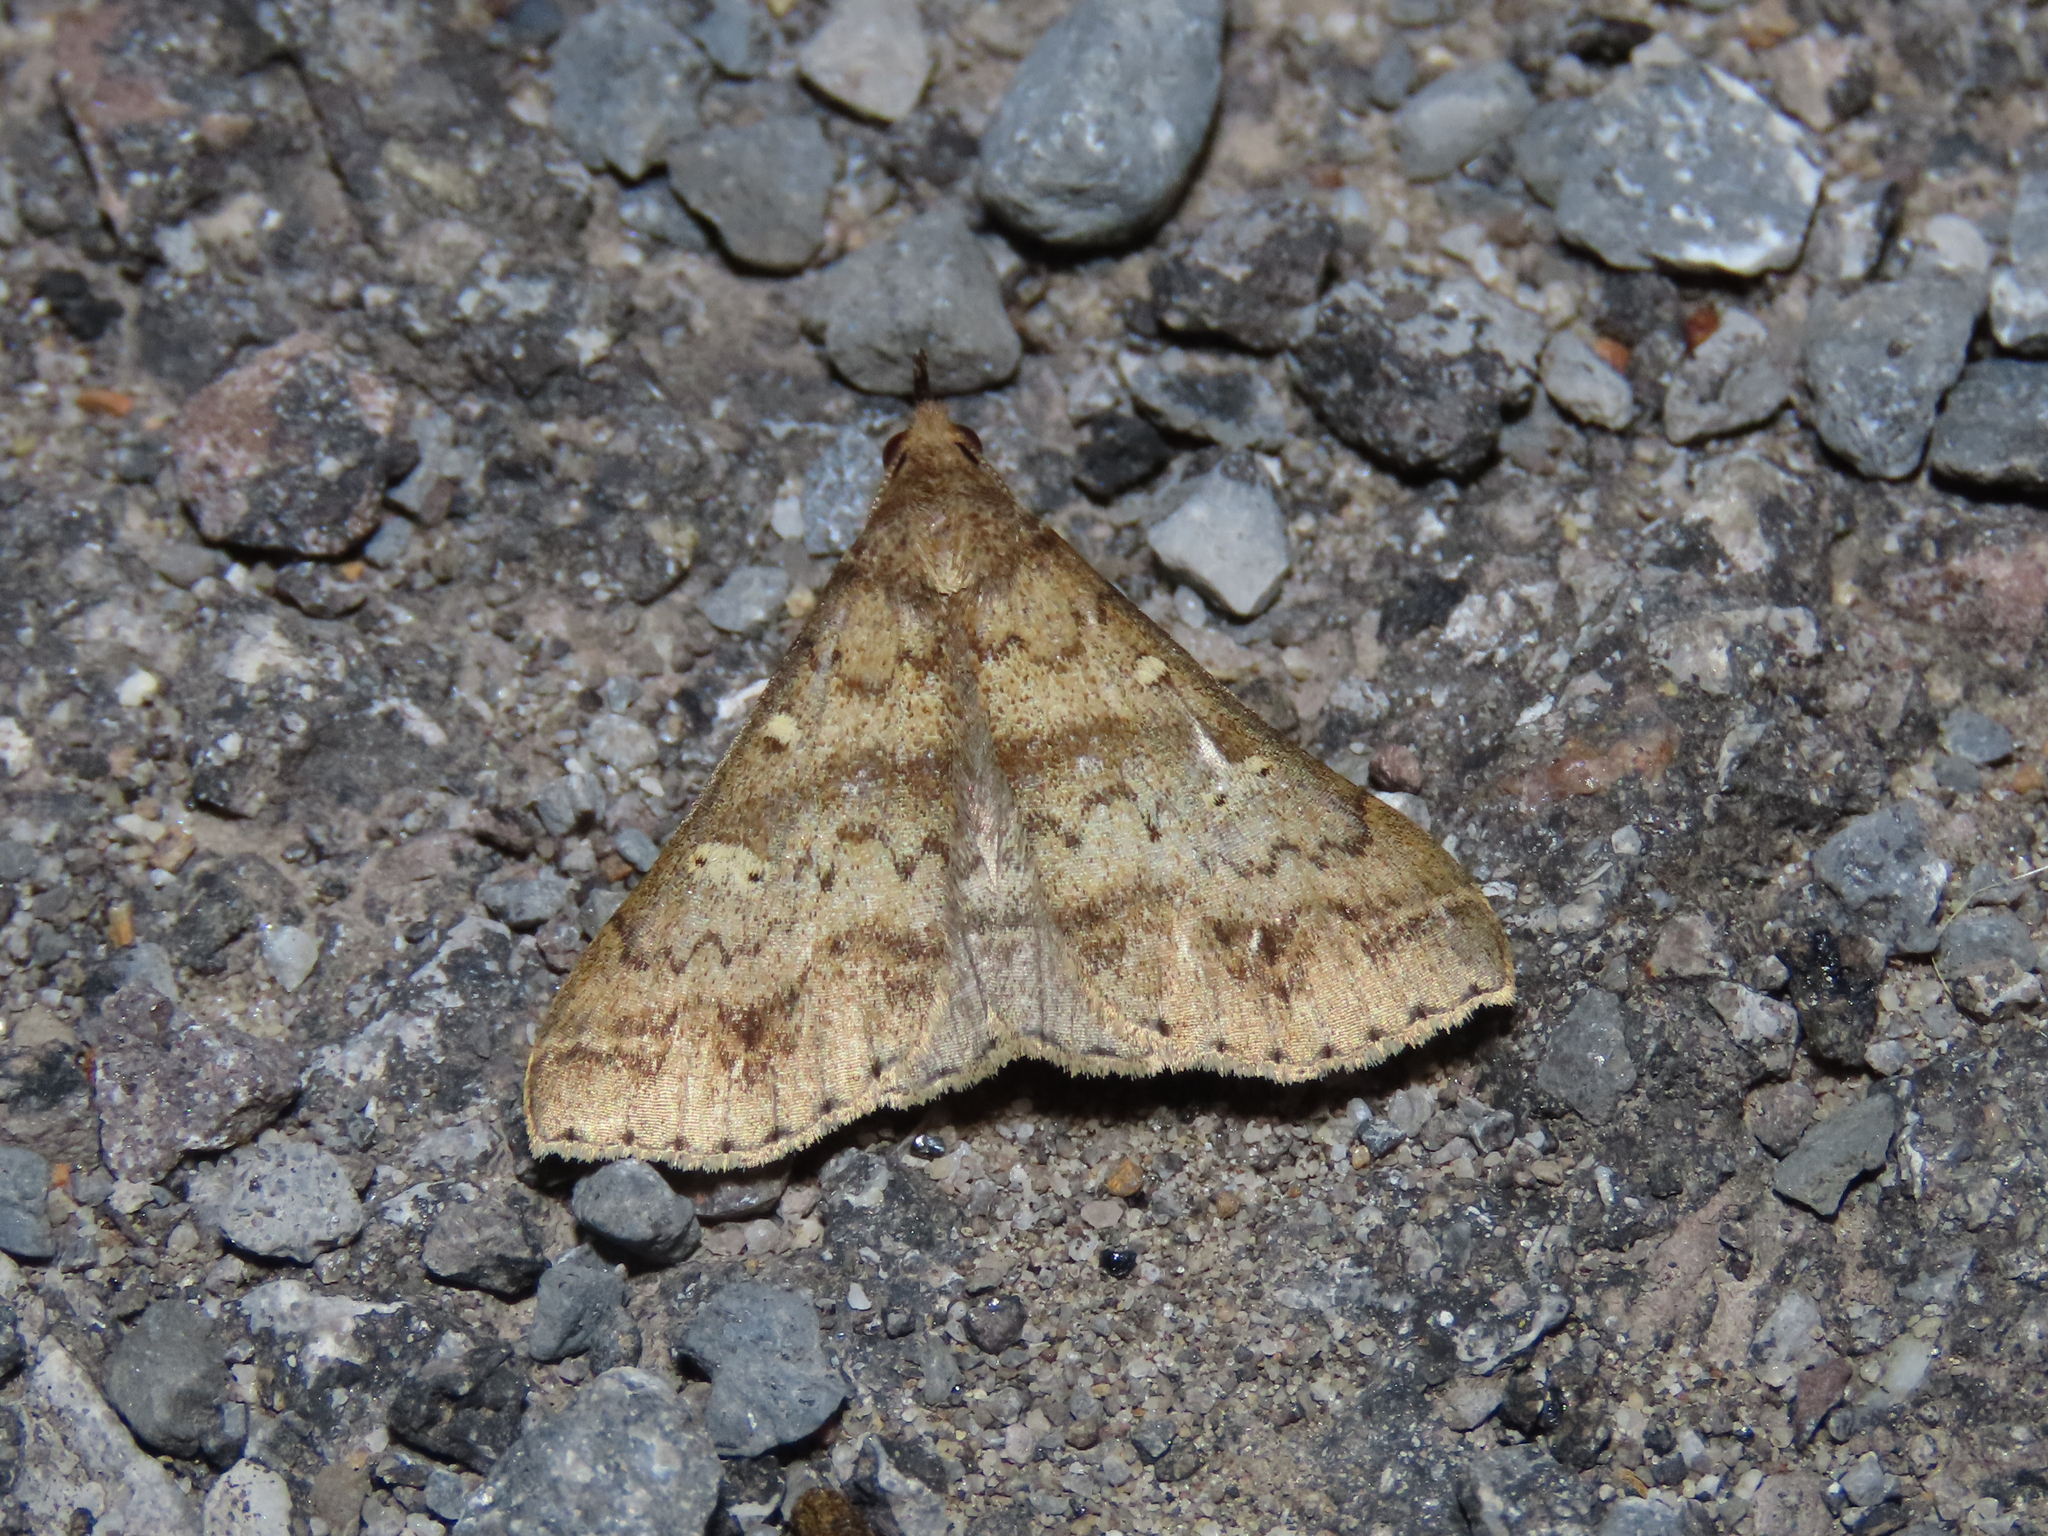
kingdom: Animalia
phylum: Arthropoda
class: Insecta
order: Lepidoptera
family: Erebidae
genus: Renia
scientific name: Renia discoloralis
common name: Discolored renia moth
